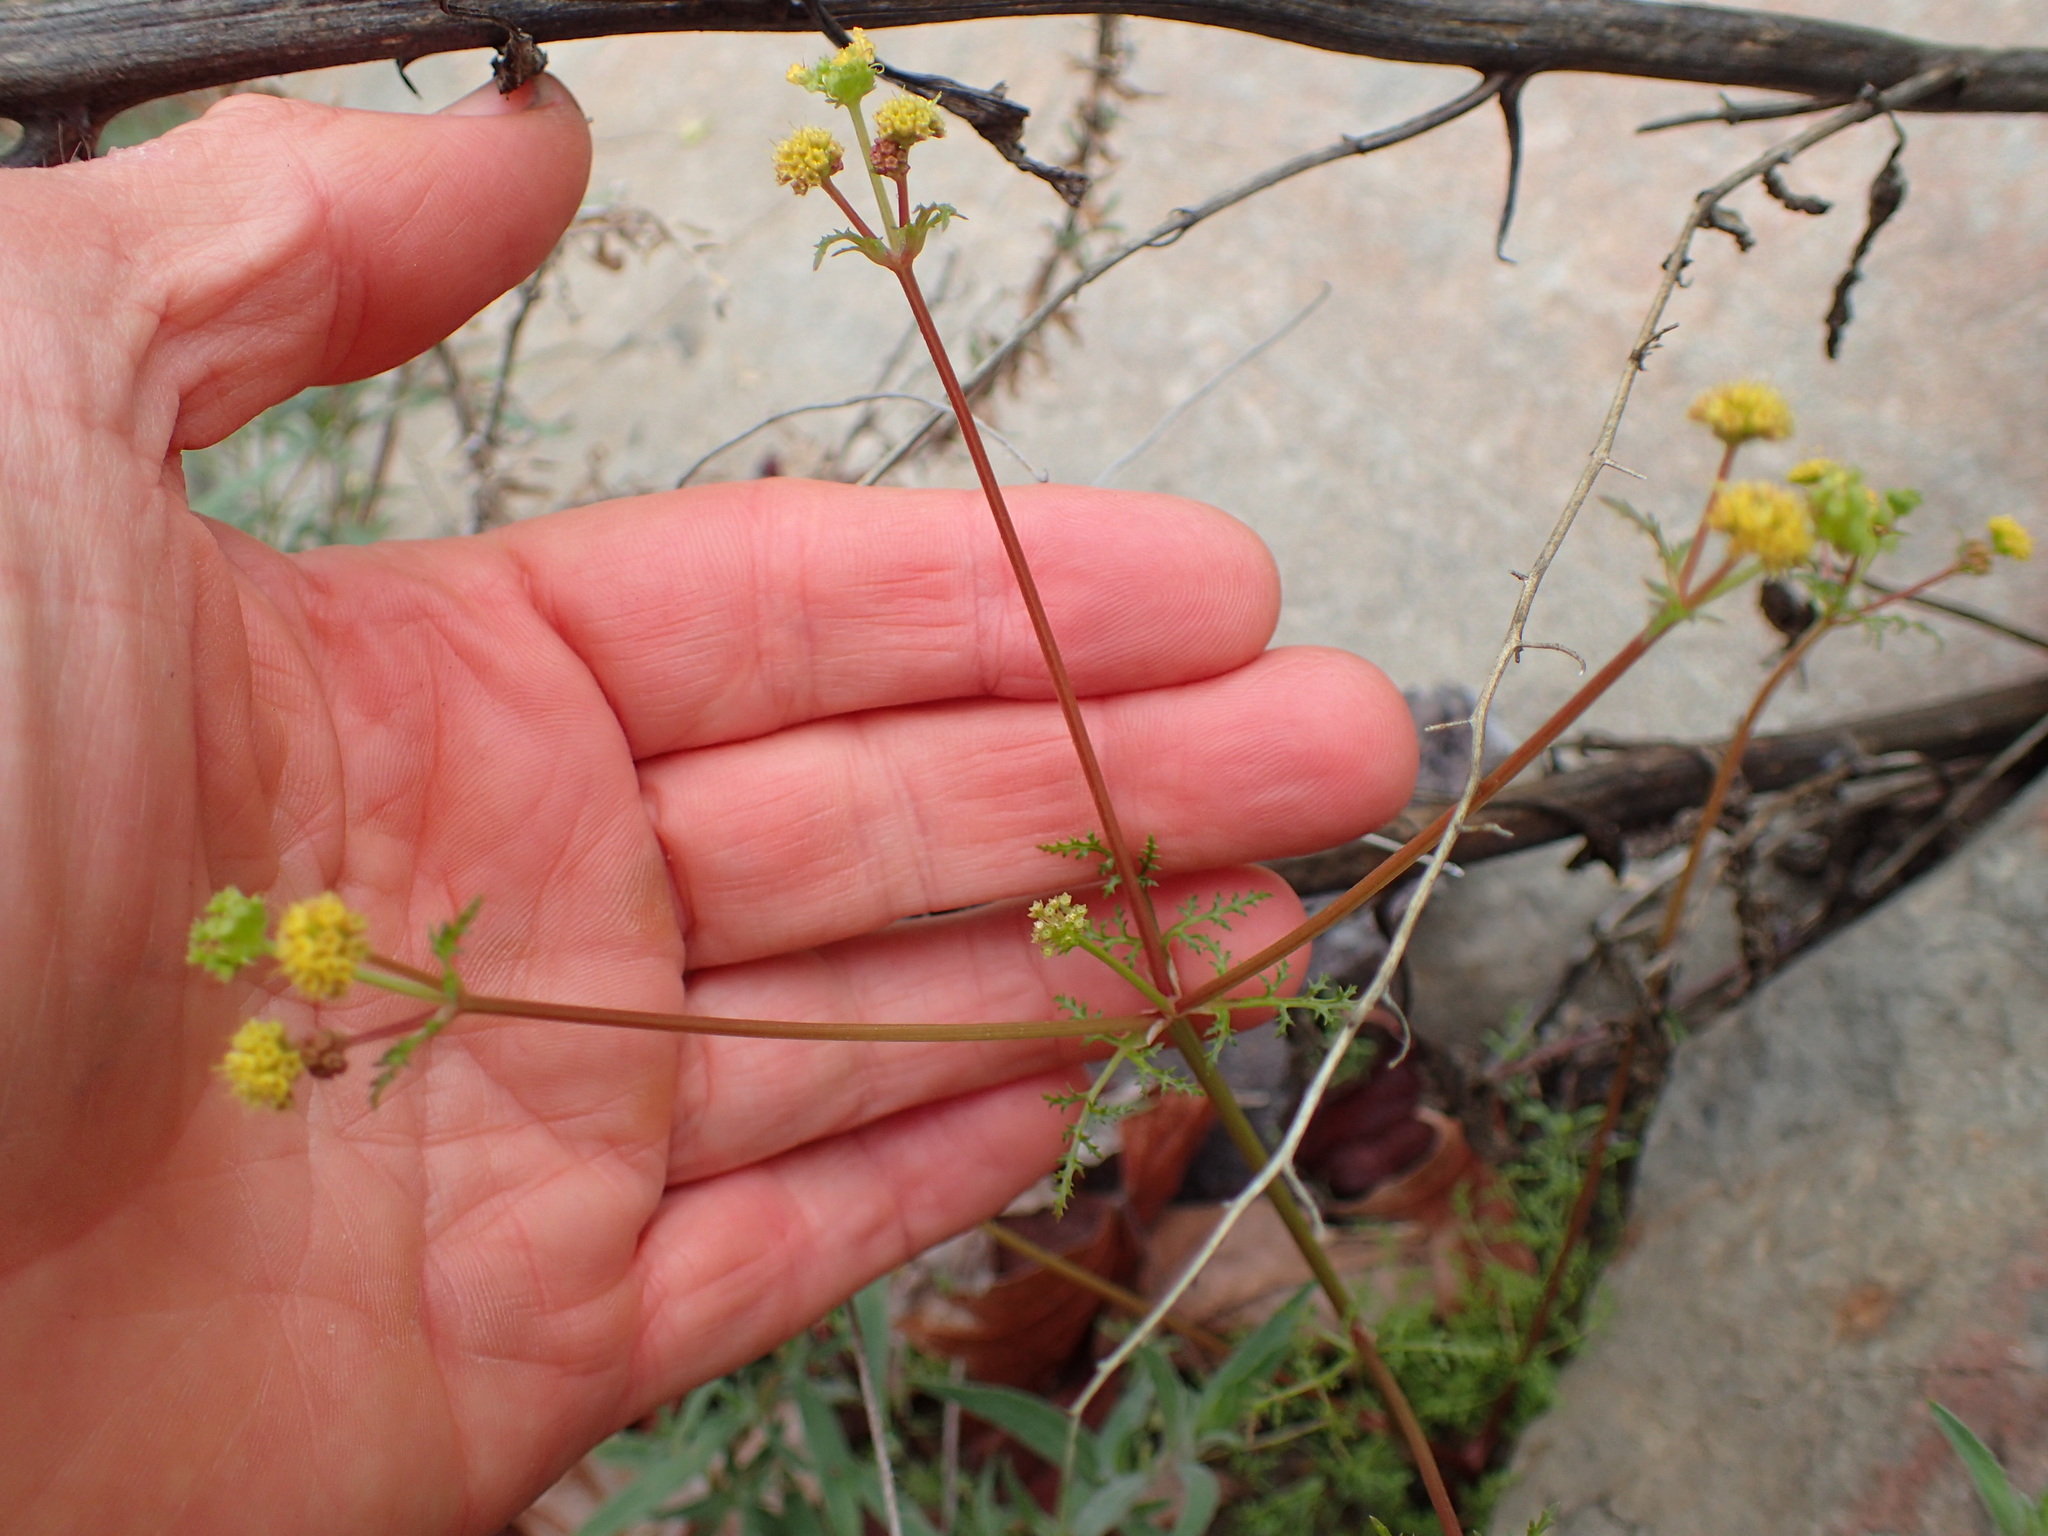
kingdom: Plantae
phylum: Tracheophyta
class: Magnoliopsida
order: Apiales
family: Apiaceae
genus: Sanicula
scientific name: Sanicula tuberosa
